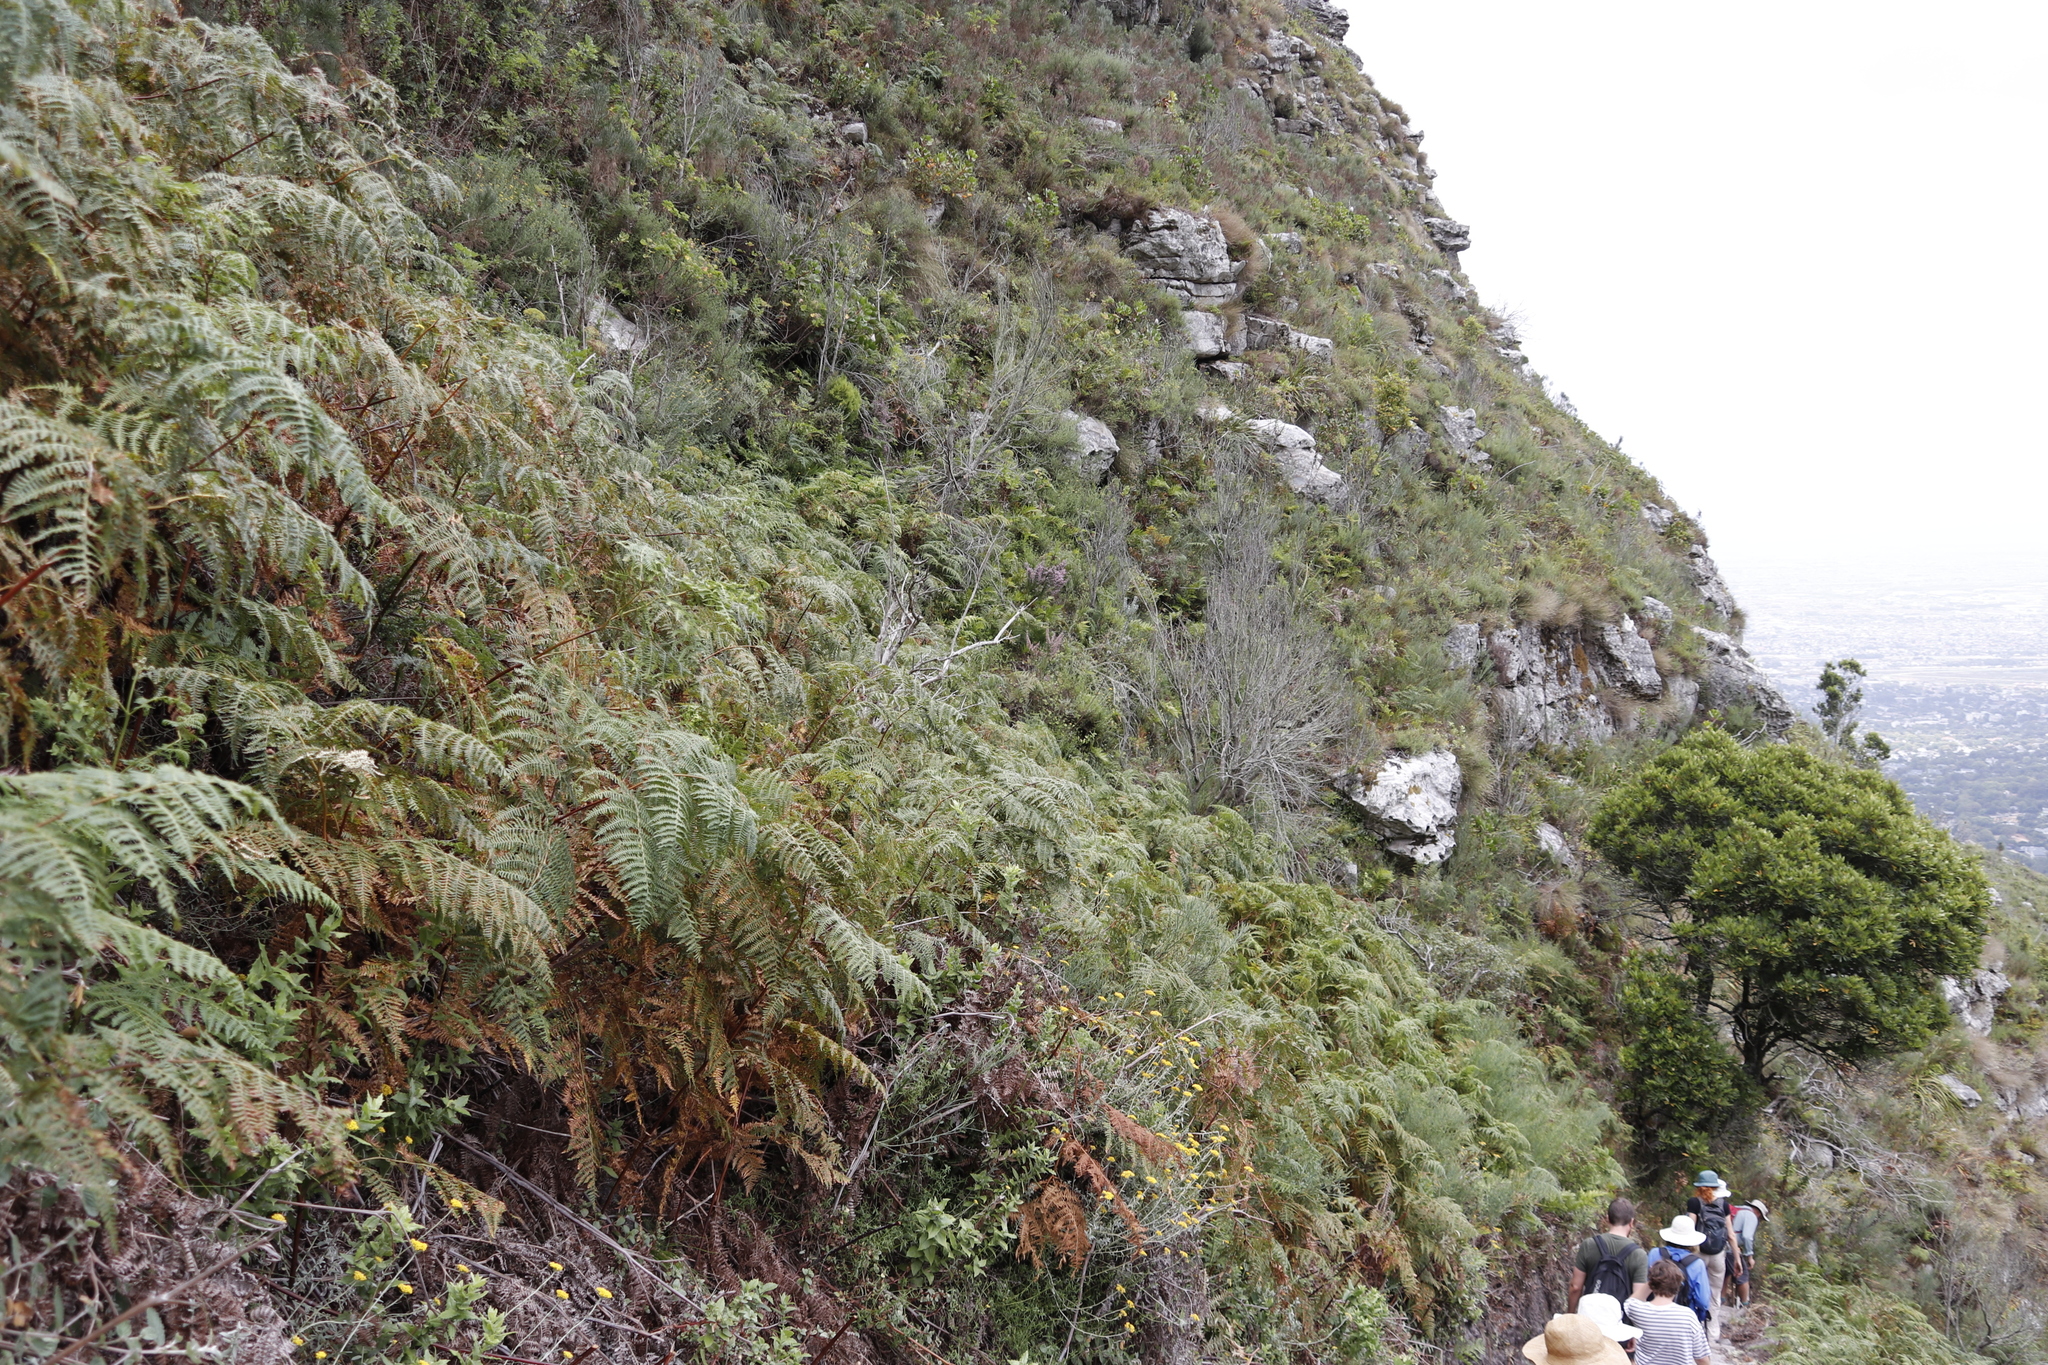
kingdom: Plantae
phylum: Tracheophyta
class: Magnoliopsida
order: Ericales
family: Ericaceae
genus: Erica
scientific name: Erica hirtiflora
